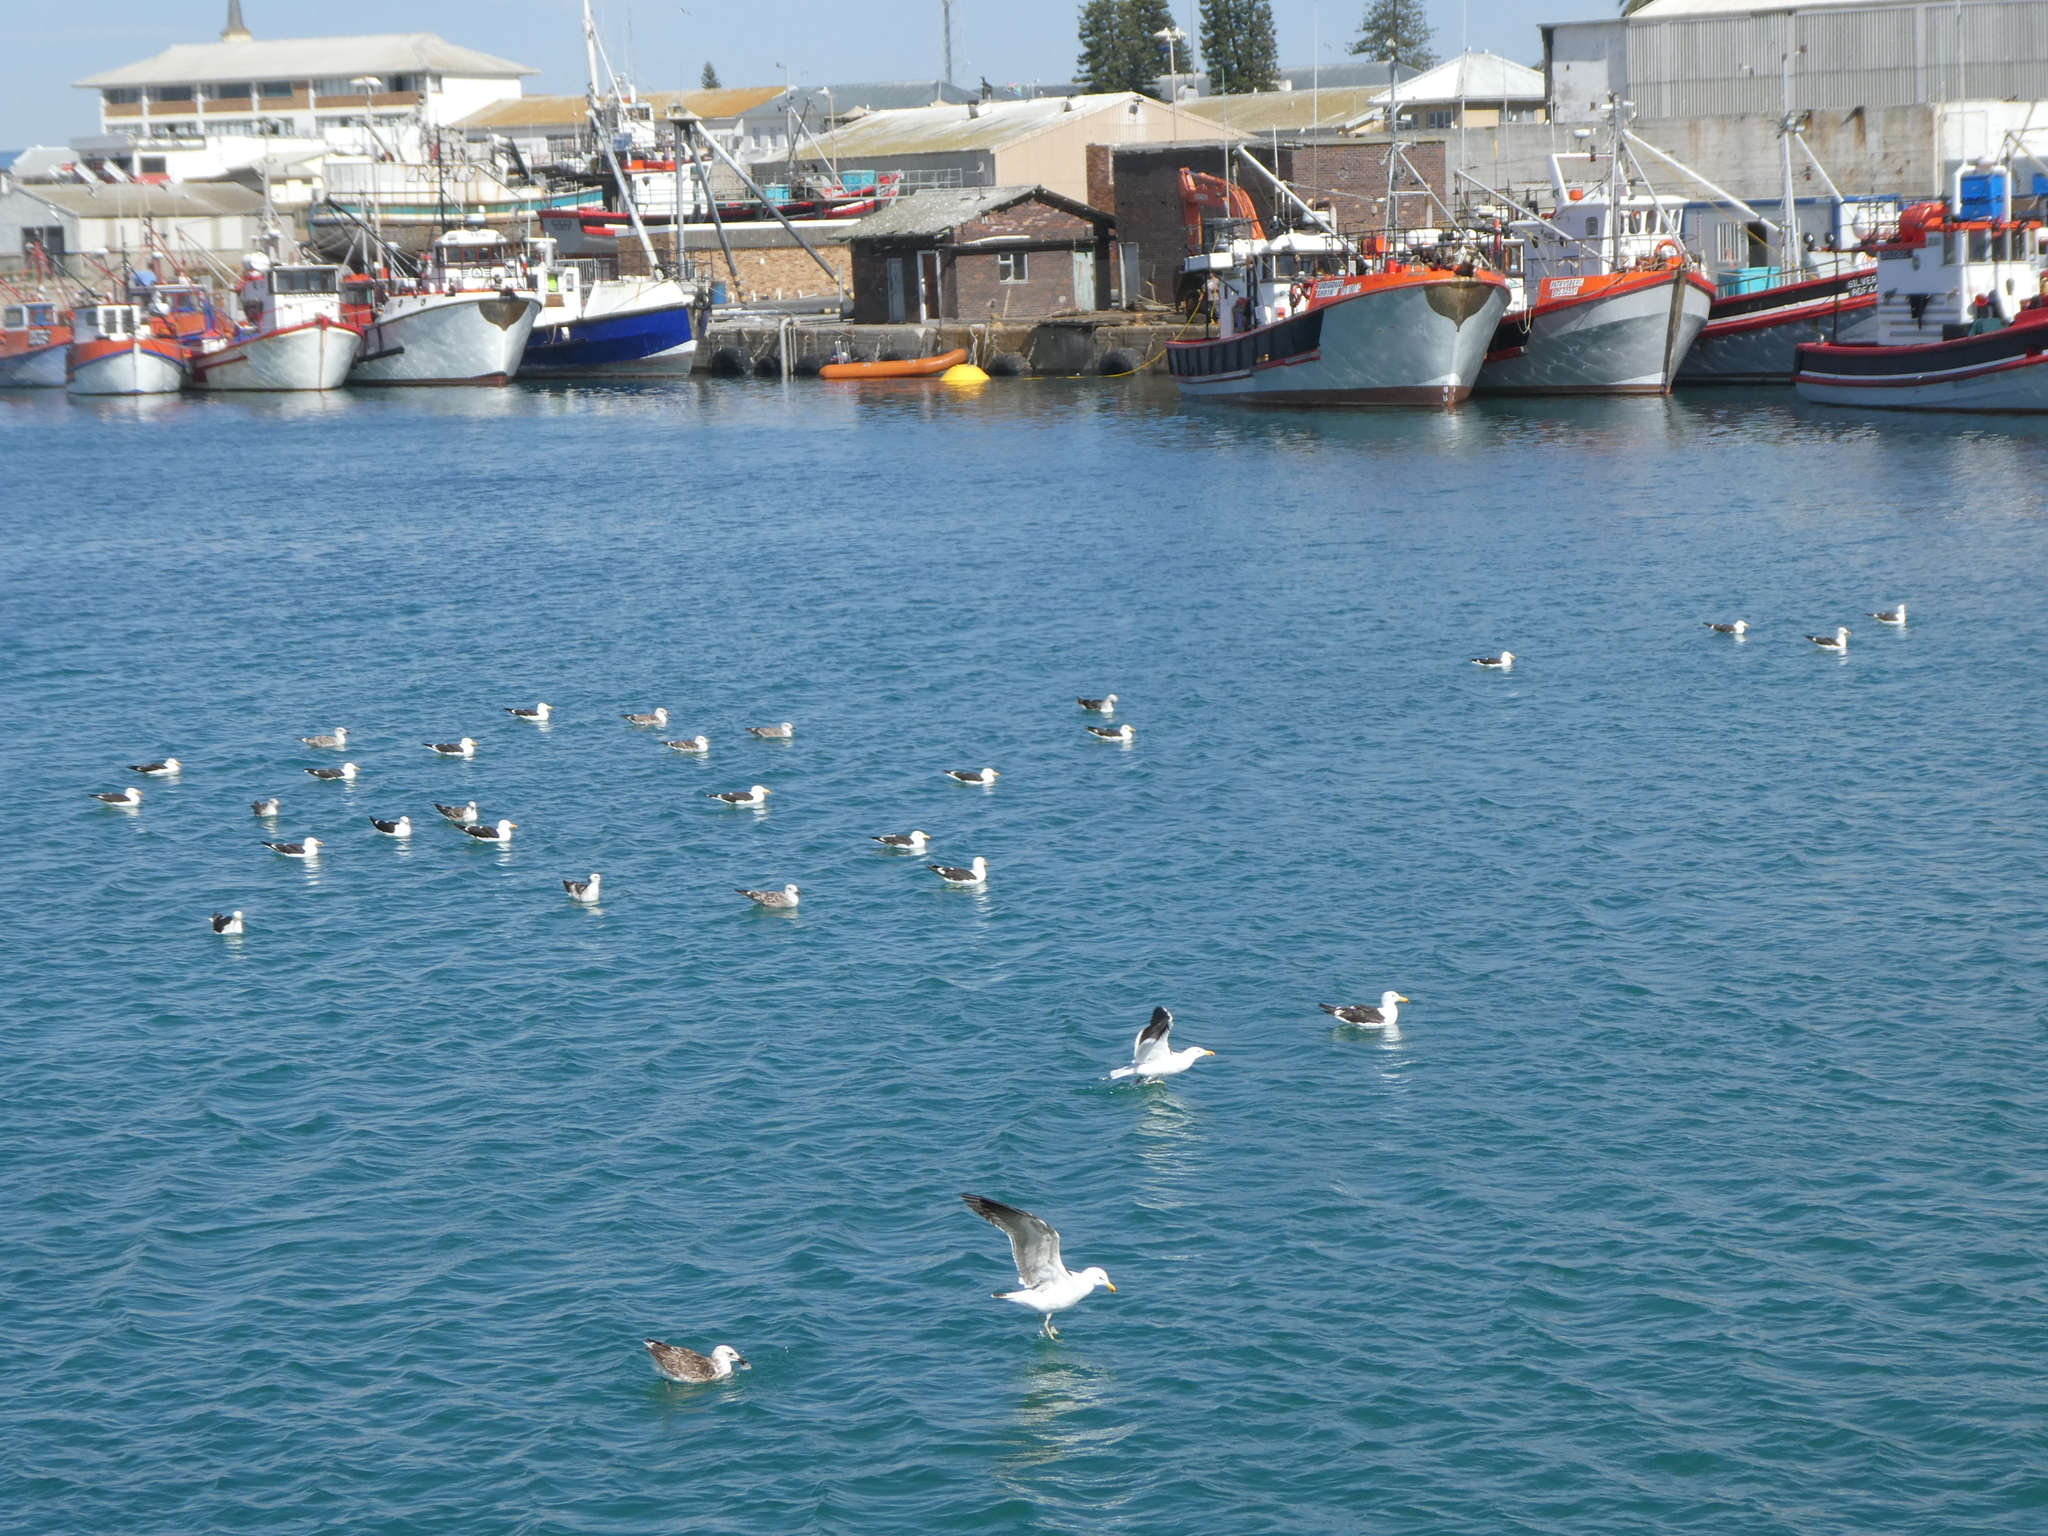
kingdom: Animalia
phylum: Chordata
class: Aves
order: Charadriiformes
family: Laridae
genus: Larus
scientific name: Larus dominicanus
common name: Kelp gull
